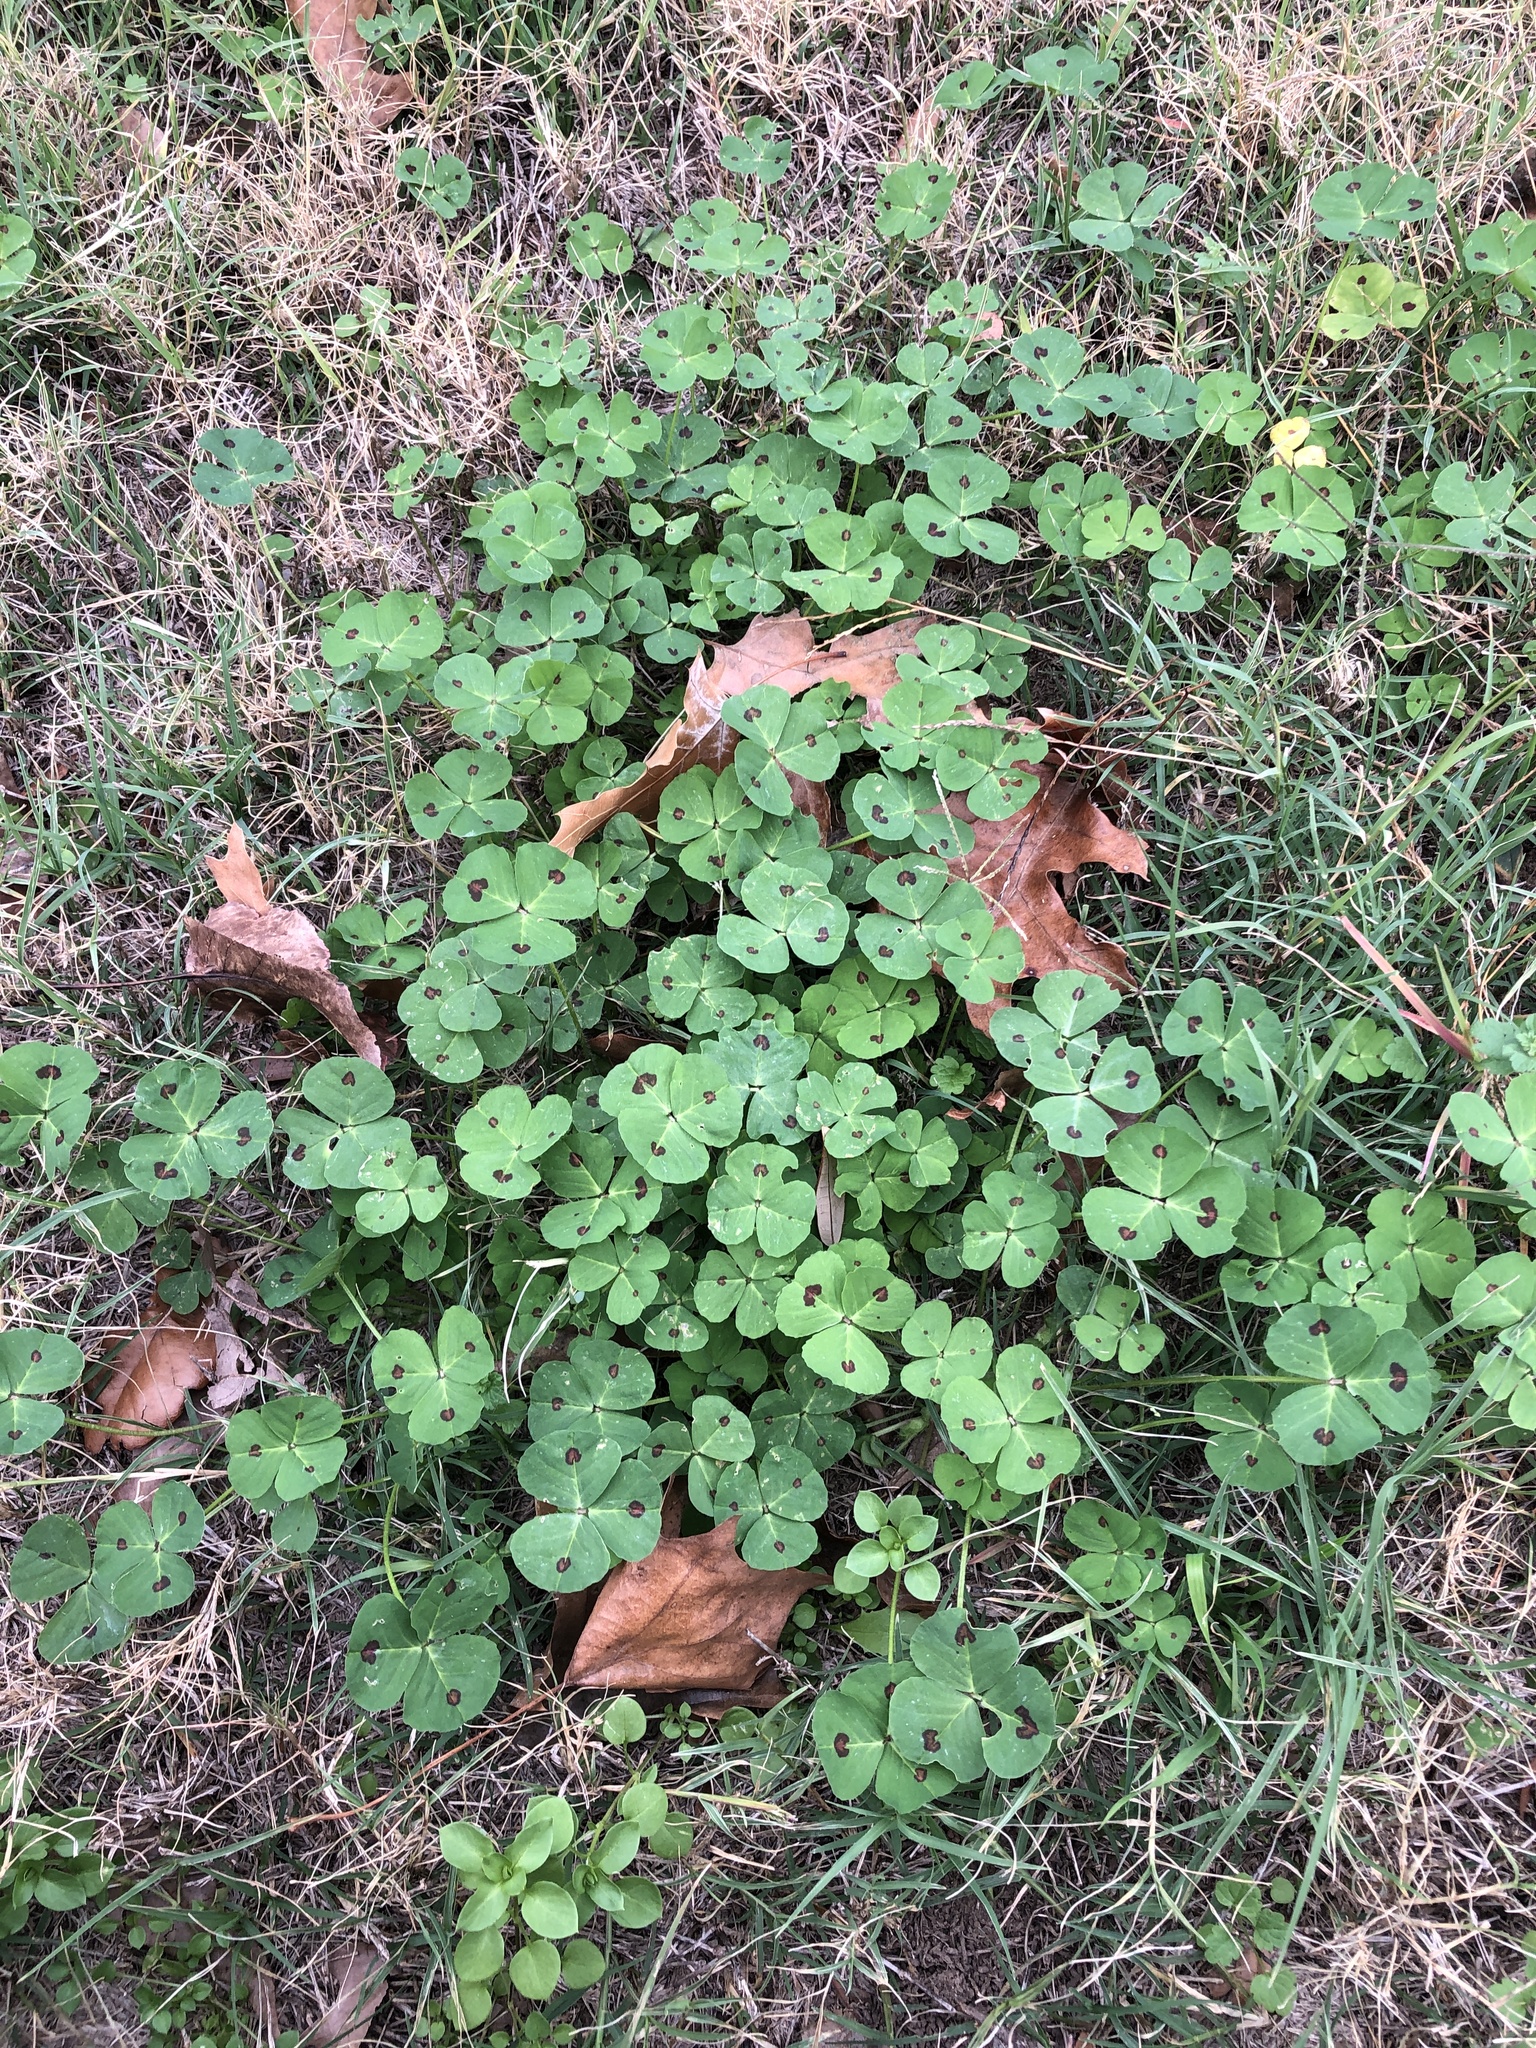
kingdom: Plantae
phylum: Tracheophyta
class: Magnoliopsida
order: Fabales
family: Fabaceae
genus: Medicago
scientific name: Medicago arabica
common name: Spotted medick
